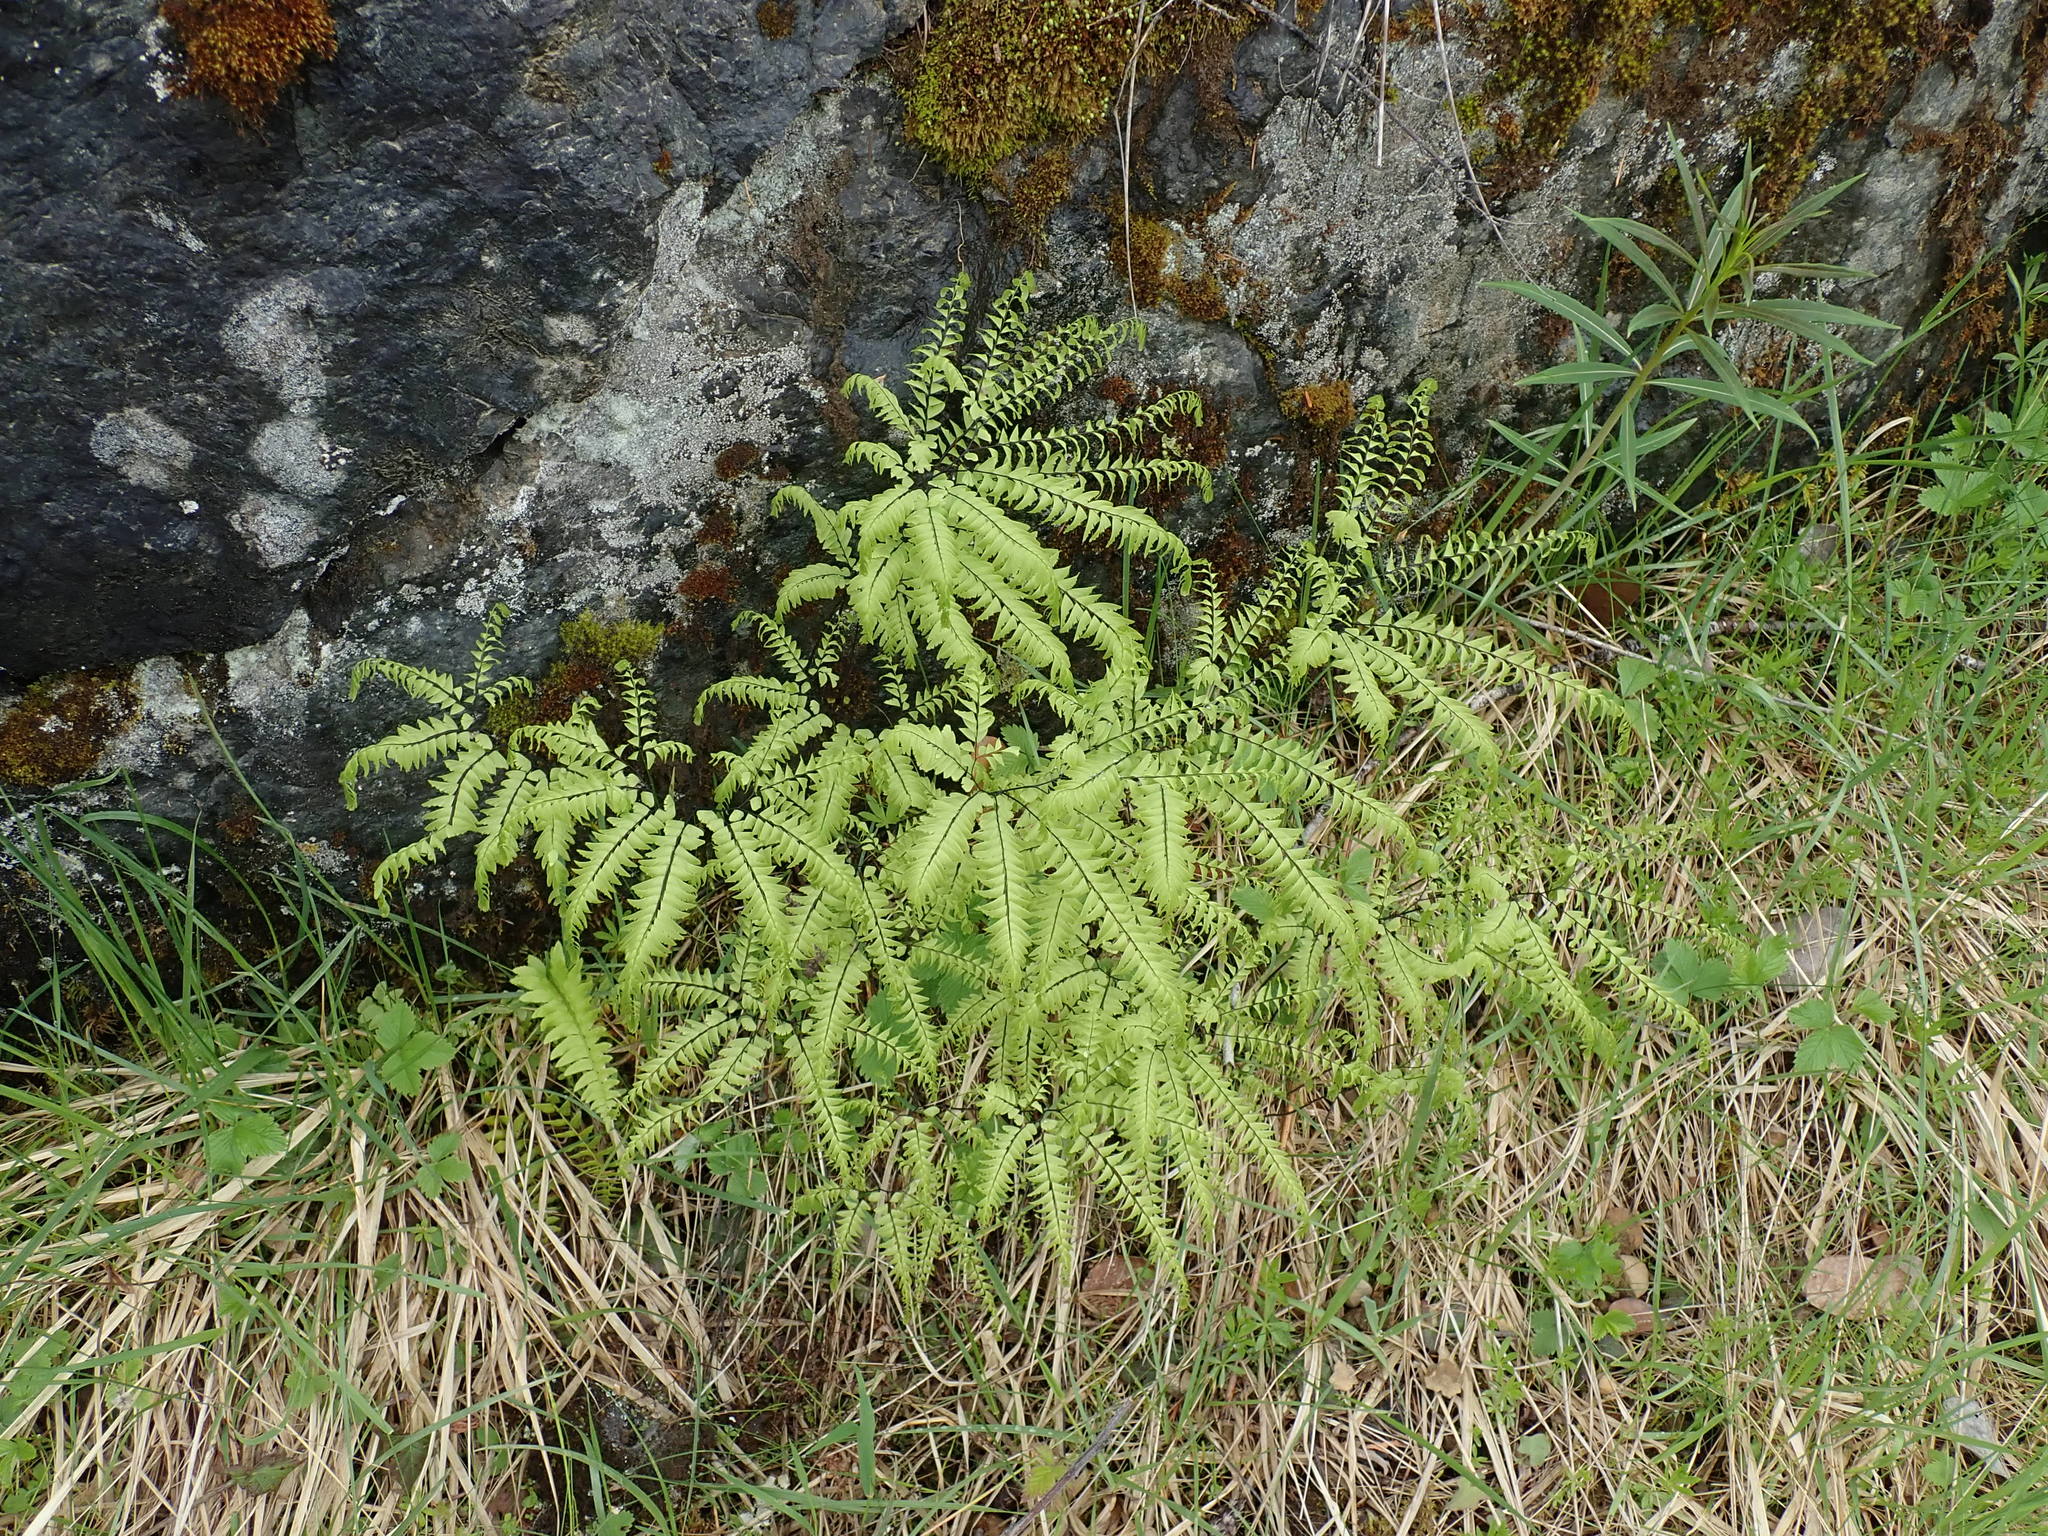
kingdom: Plantae
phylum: Tracheophyta
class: Polypodiopsida
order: Polypodiales
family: Pteridaceae
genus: Adiantum
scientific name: Adiantum aleuticum
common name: Aleutian maidenhair fern
